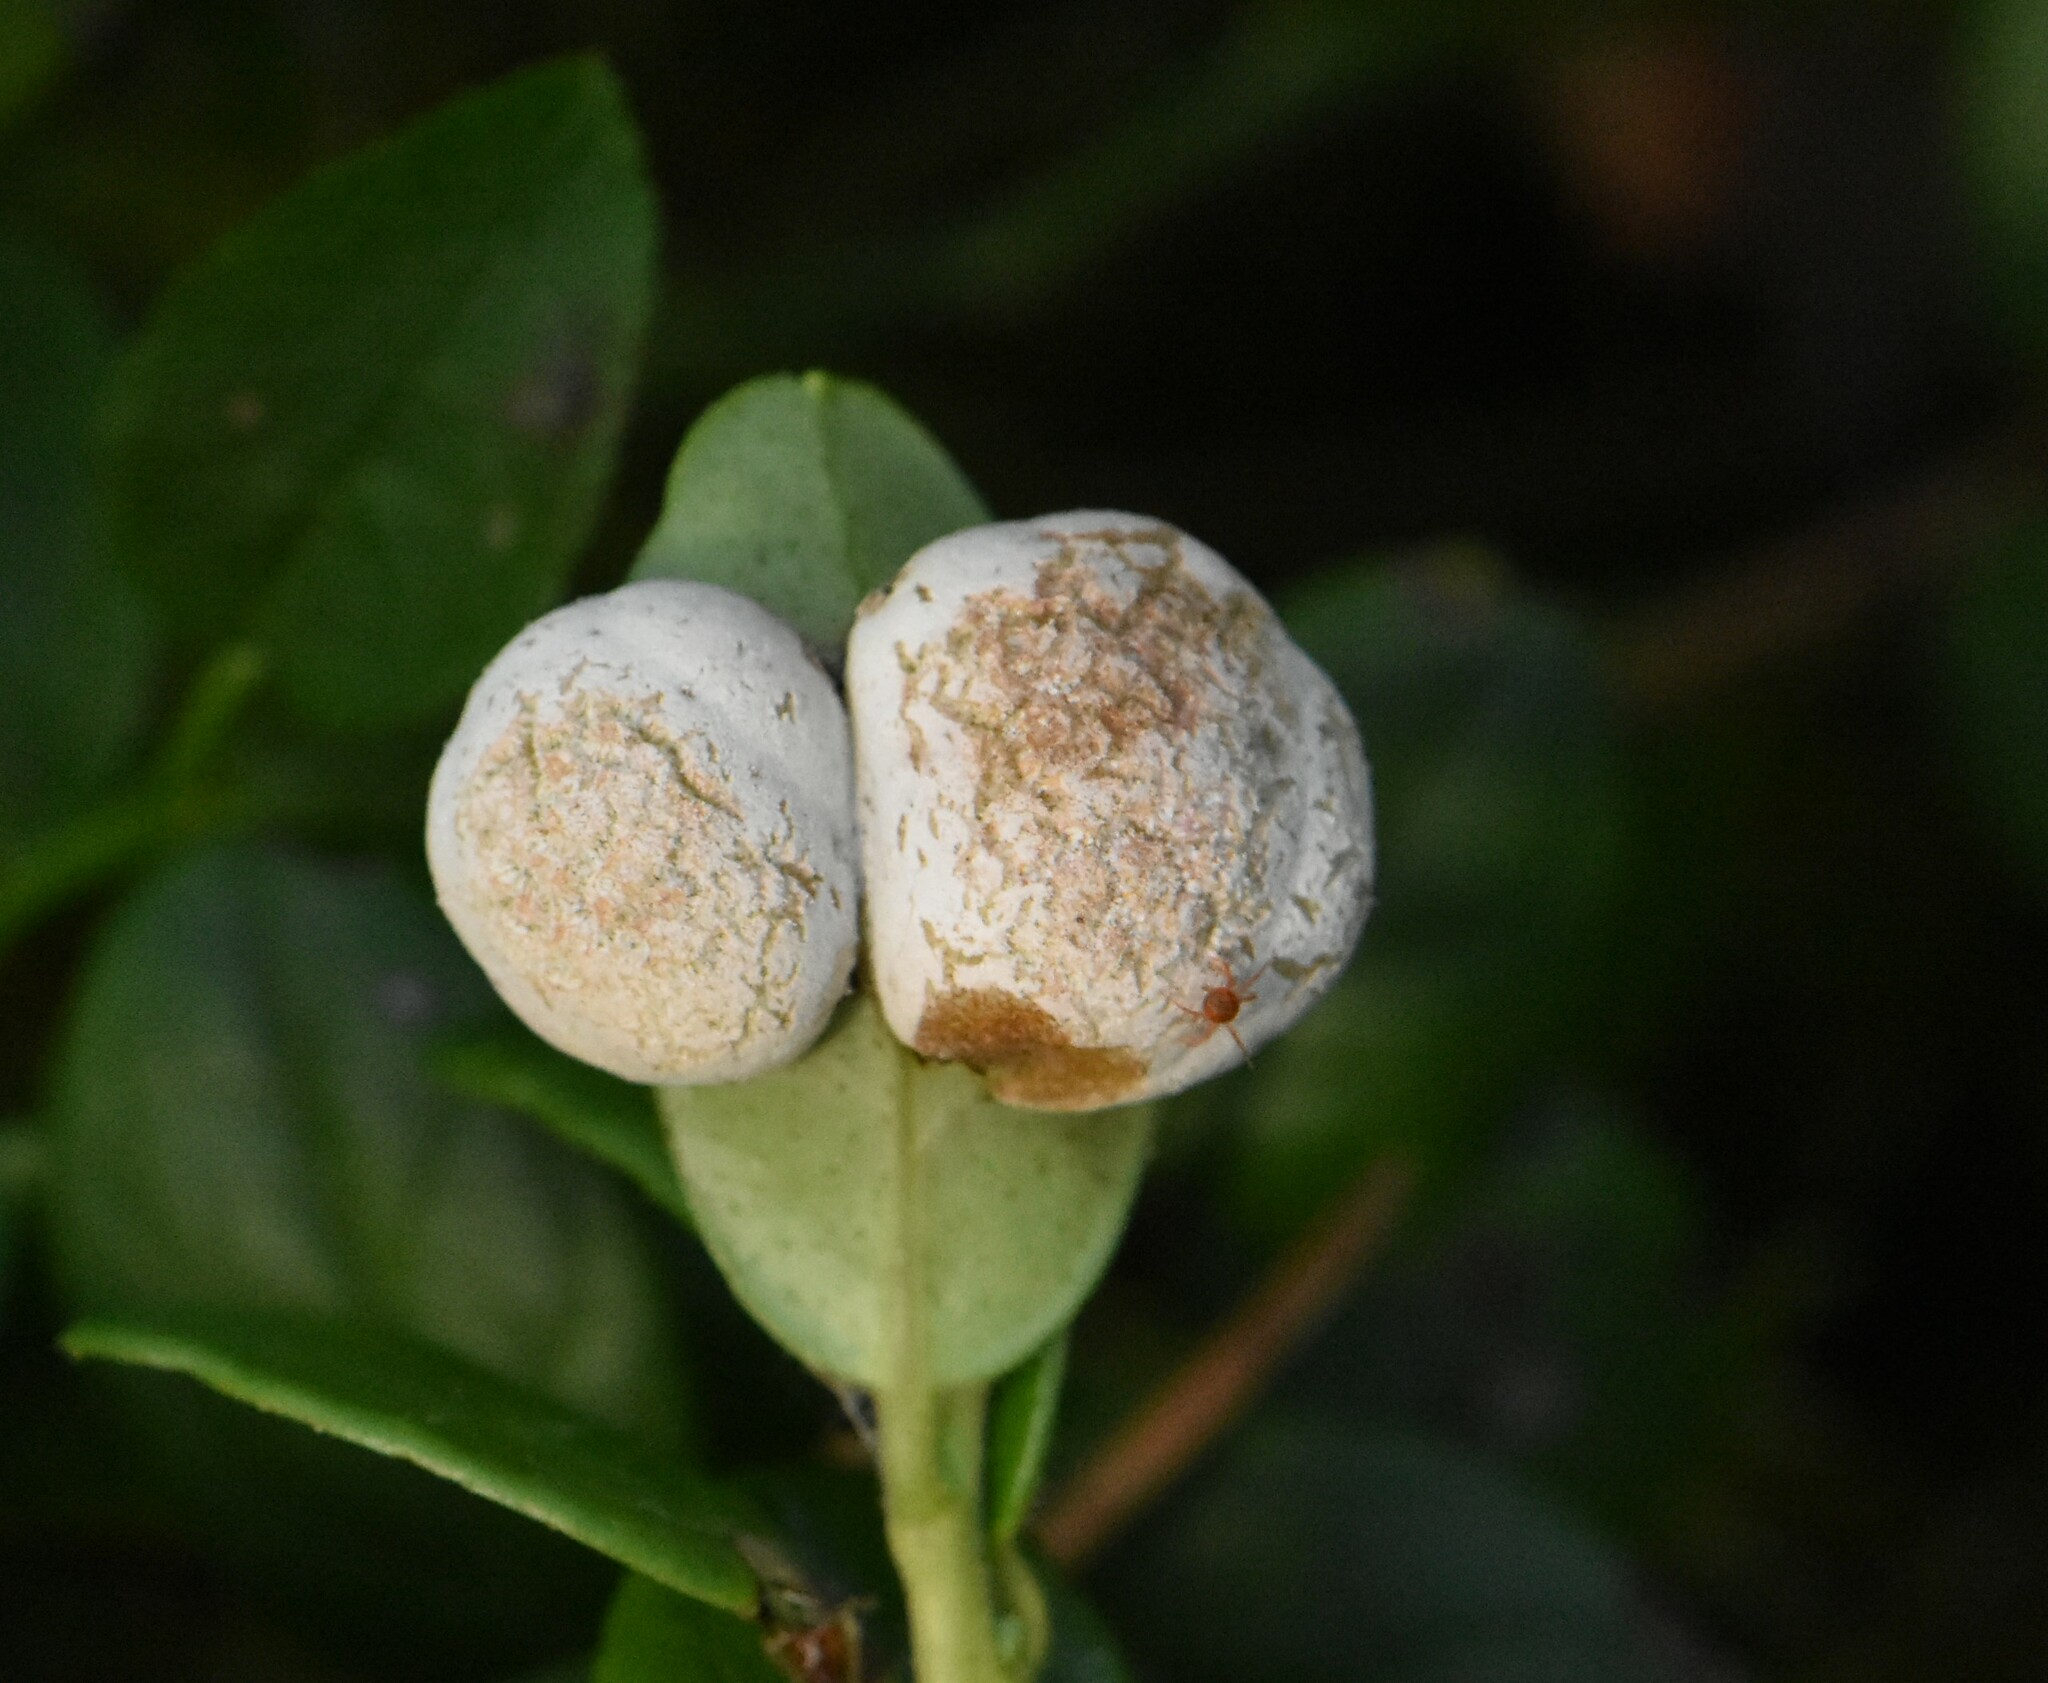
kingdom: Fungi
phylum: Basidiomycota
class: Exobasidiomycetes
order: Exobasidiales
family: Exobasidiaceae
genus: Exobasidium
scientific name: Exobasidium vaccinii
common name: Cowberry redleaf
